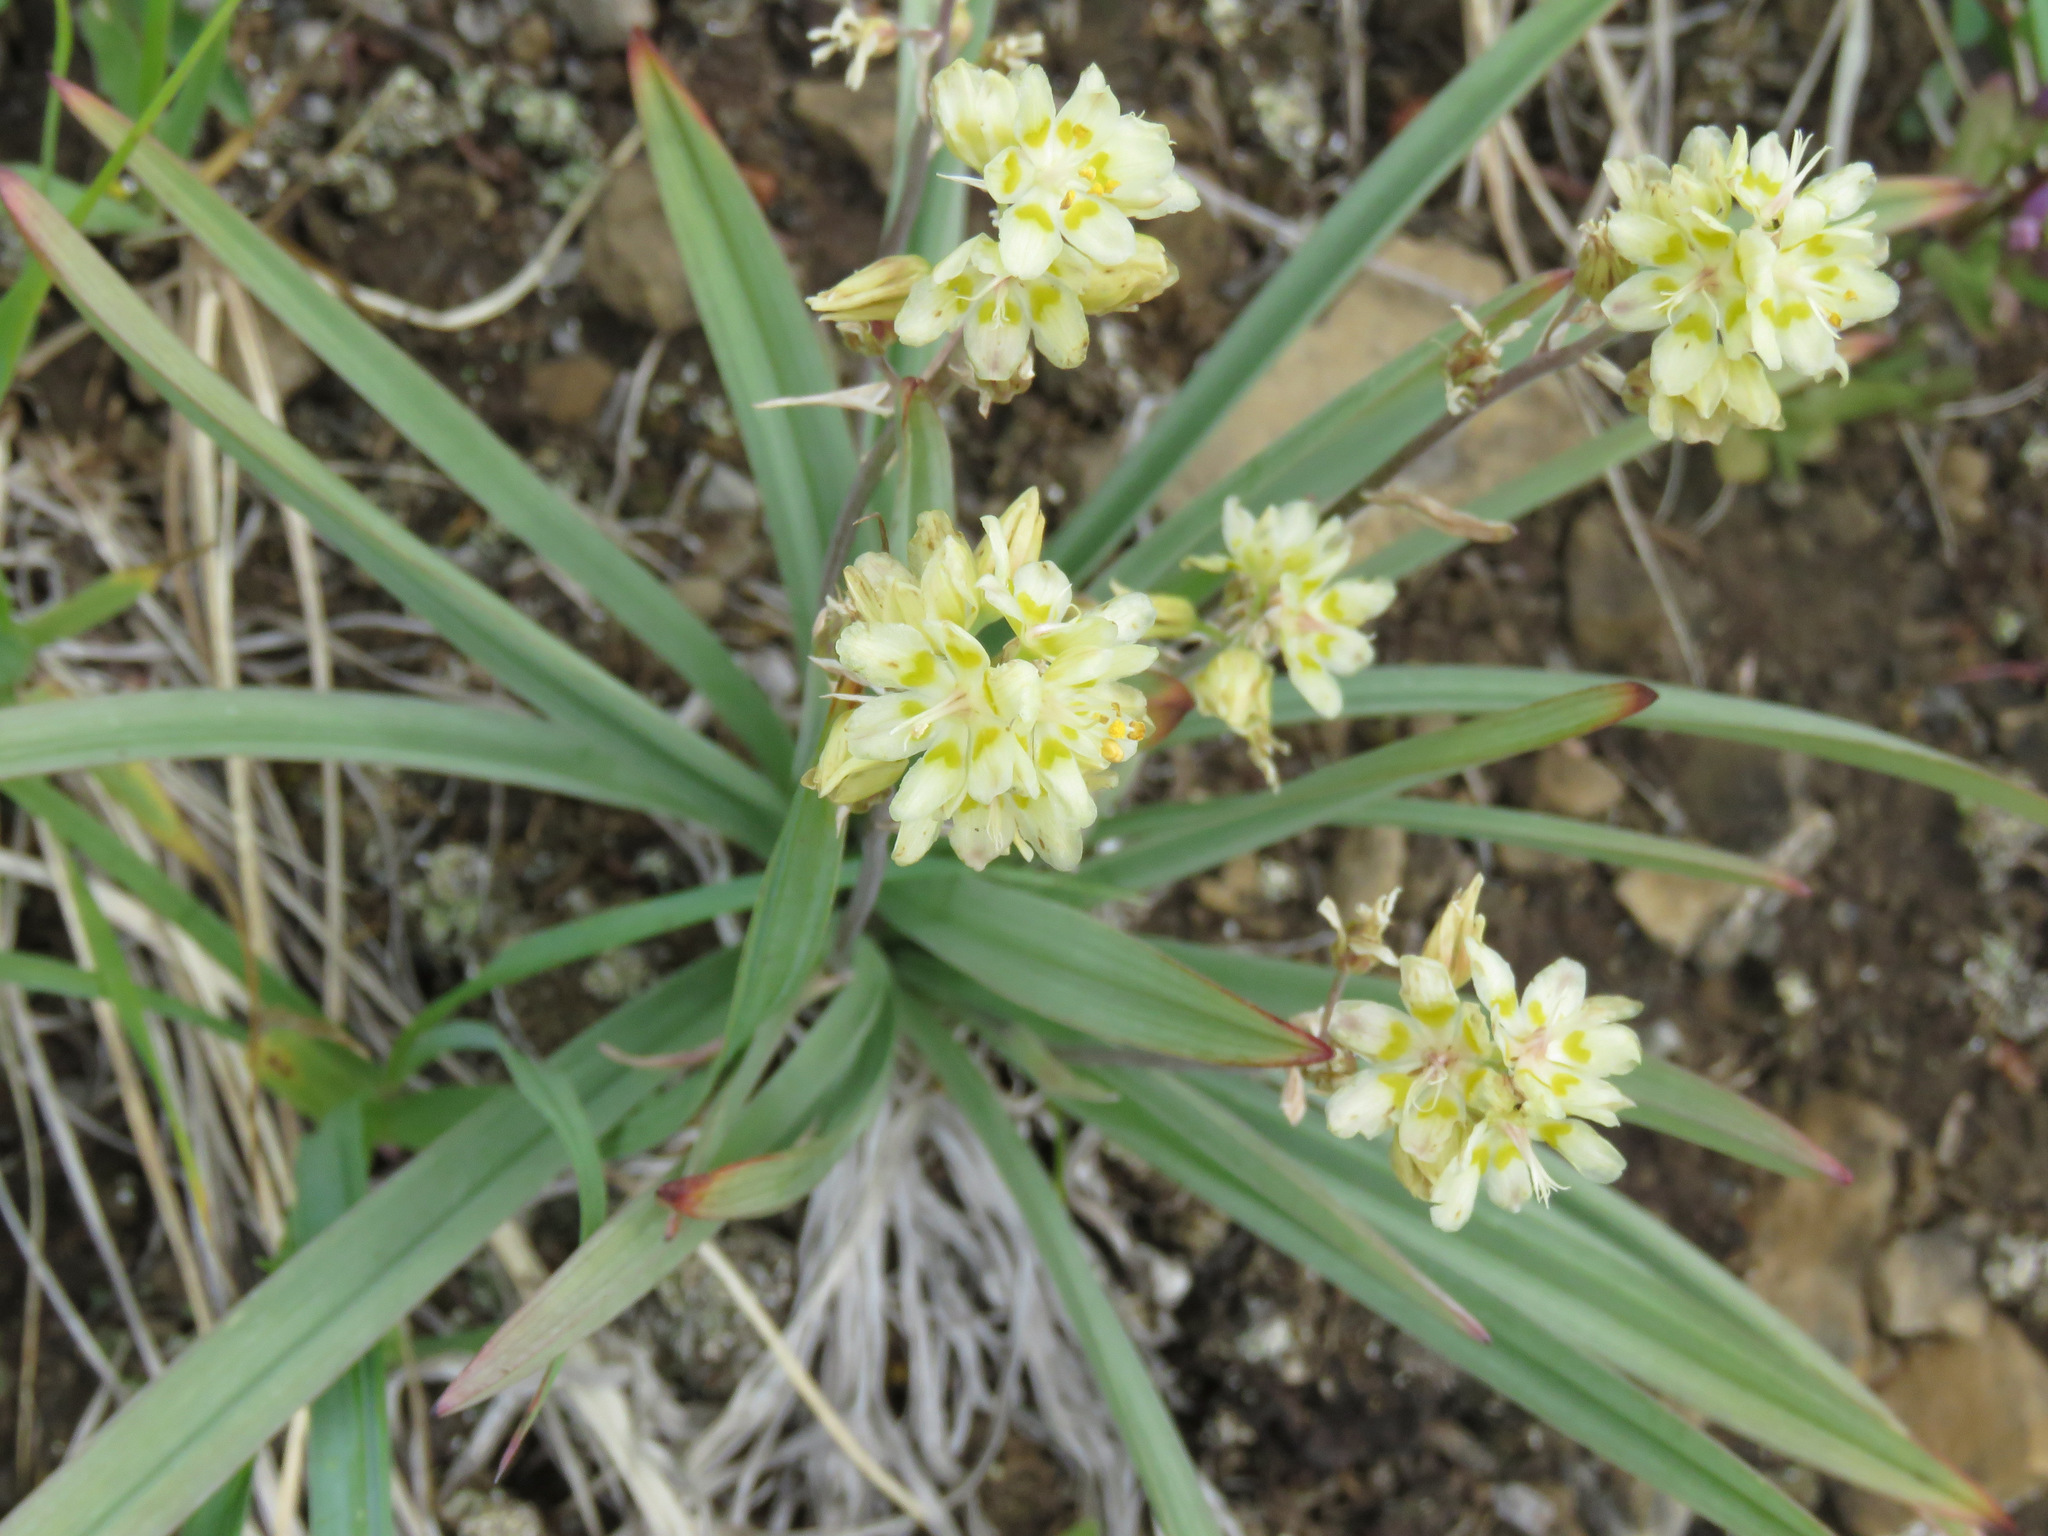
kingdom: Plantae
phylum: Tracheophyta
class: Liliopsida
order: Liliales
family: Melanthiaceae
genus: Anticlea
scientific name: Anticlea elegans
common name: Mountain death camas
